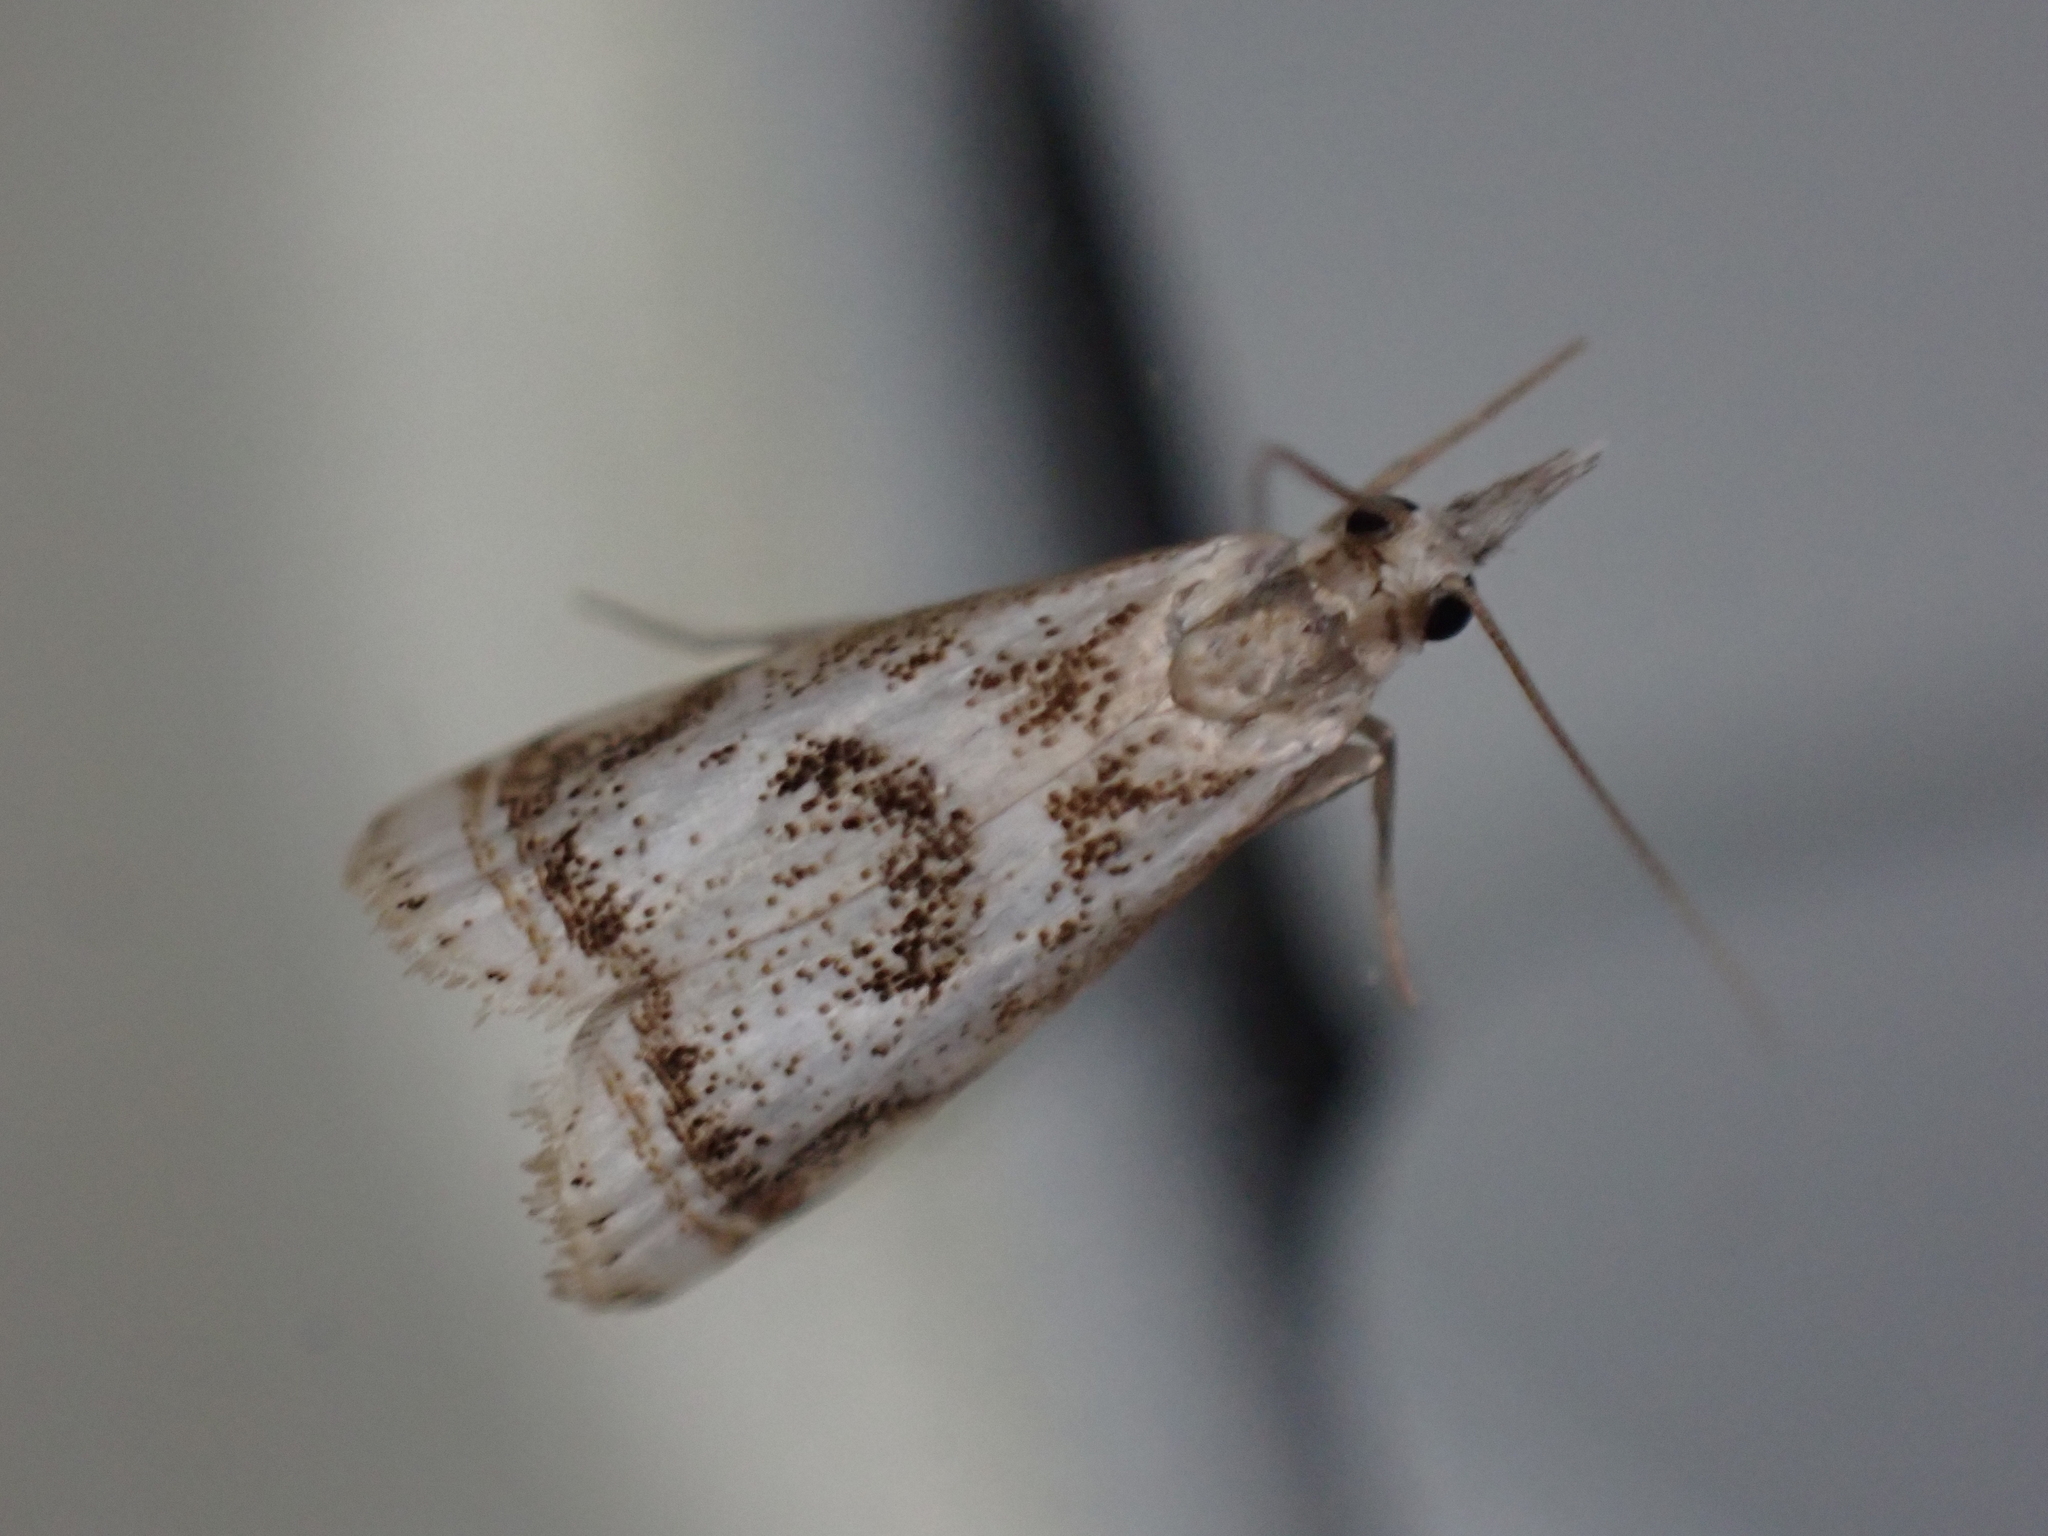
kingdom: Animalia
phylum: Arthropoda
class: Insecta
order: Lepidoptera
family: Crambidae
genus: Microcrambus
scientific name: Microcrambus elegans
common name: Elegant grass-veneer
